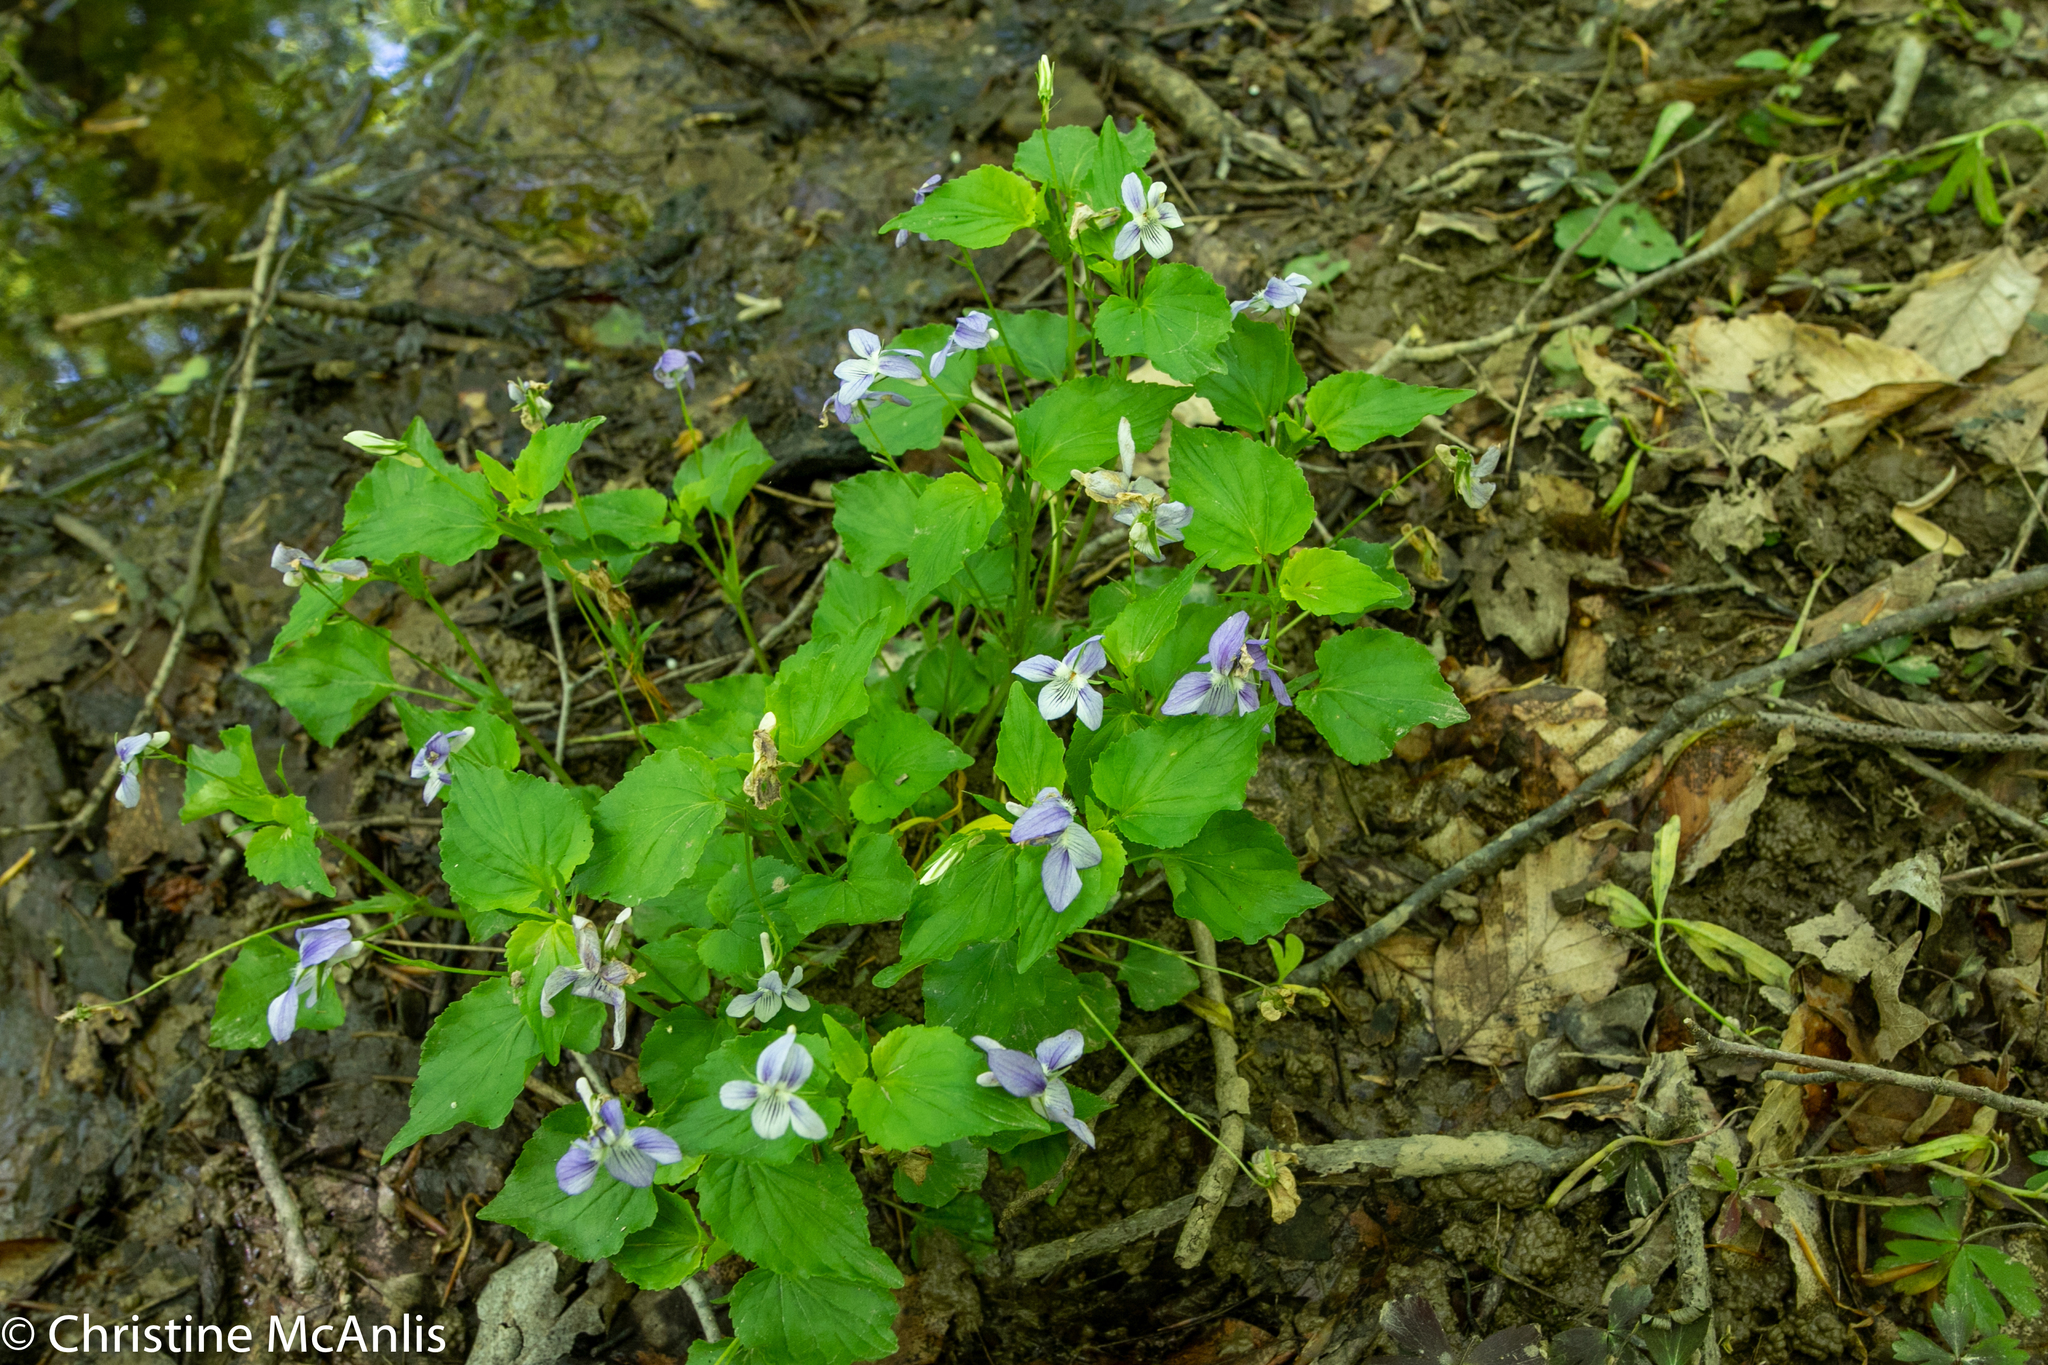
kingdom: Plantae
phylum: Tracheophyta
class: Magnoliopsida
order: Malpighiales
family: Violaceae
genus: Viola
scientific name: Viola rostrata
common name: Long-spur violet
